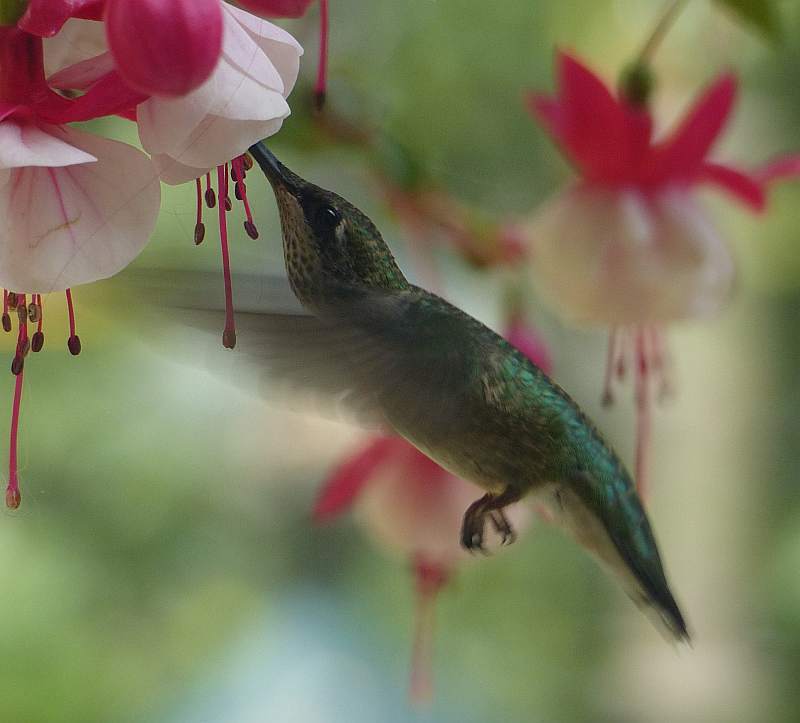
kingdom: Animalia
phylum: Chordata
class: Aves
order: Apodiformes
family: Trochilidae
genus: Archilochus
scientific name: Archilochus colubris
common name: Ruby-throated hummingbird
